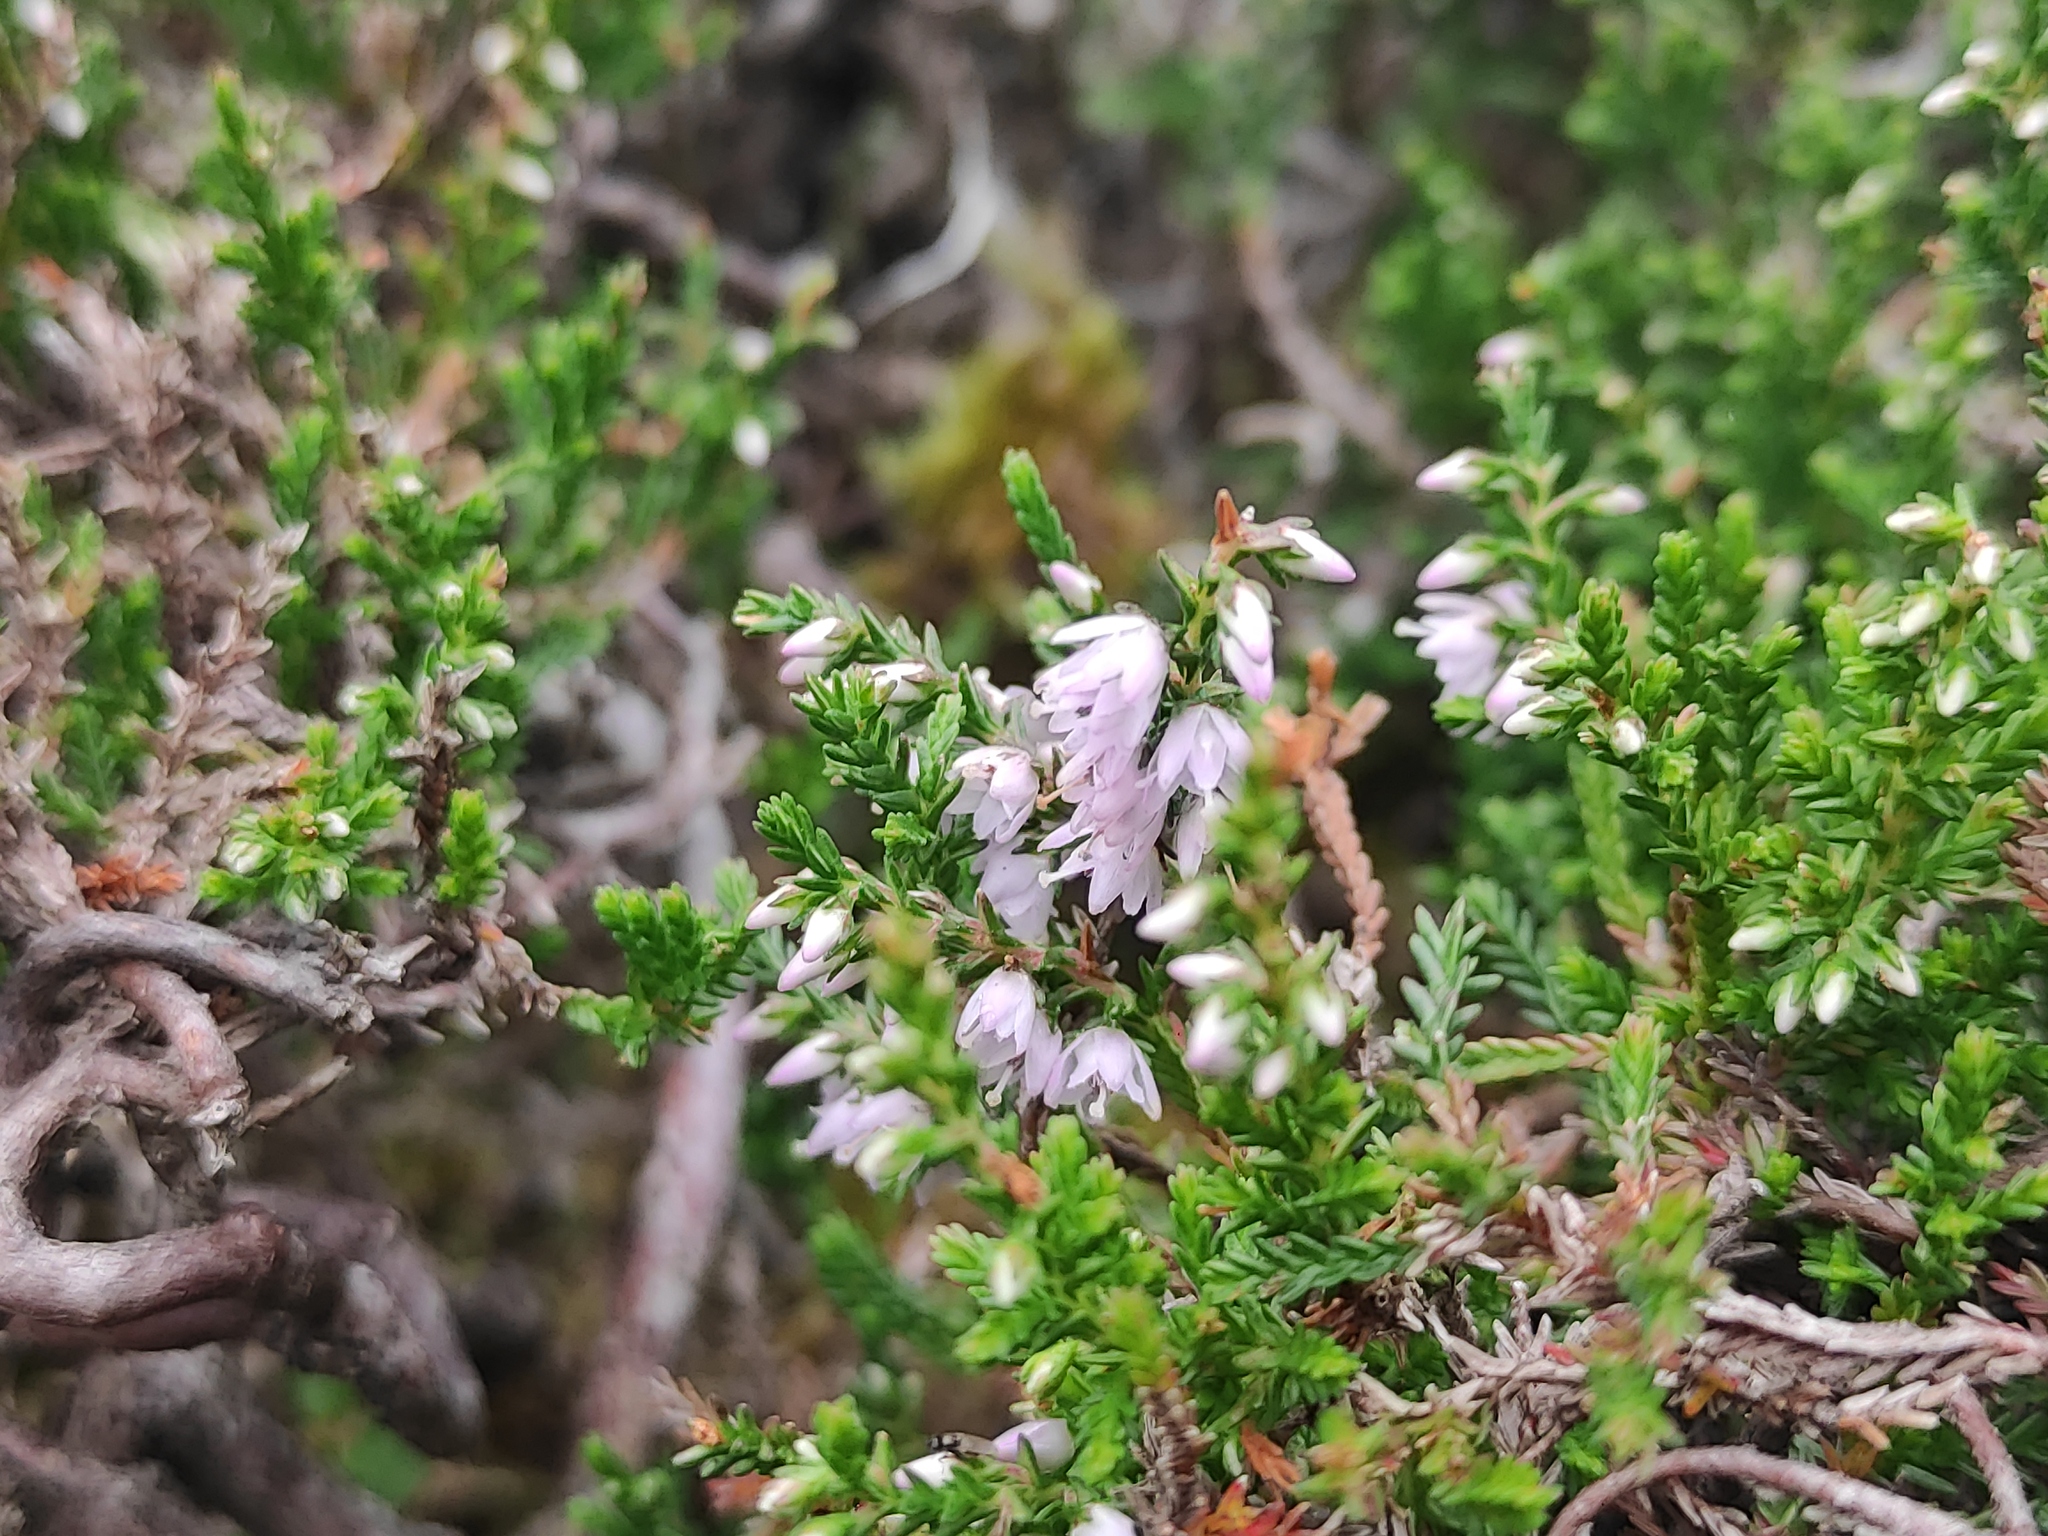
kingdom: Plantae
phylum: Tracheophyta
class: Magnoliopsida
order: Ericales
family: Ericaceae
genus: Calluna
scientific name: Calluna vulgaris
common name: Heather
